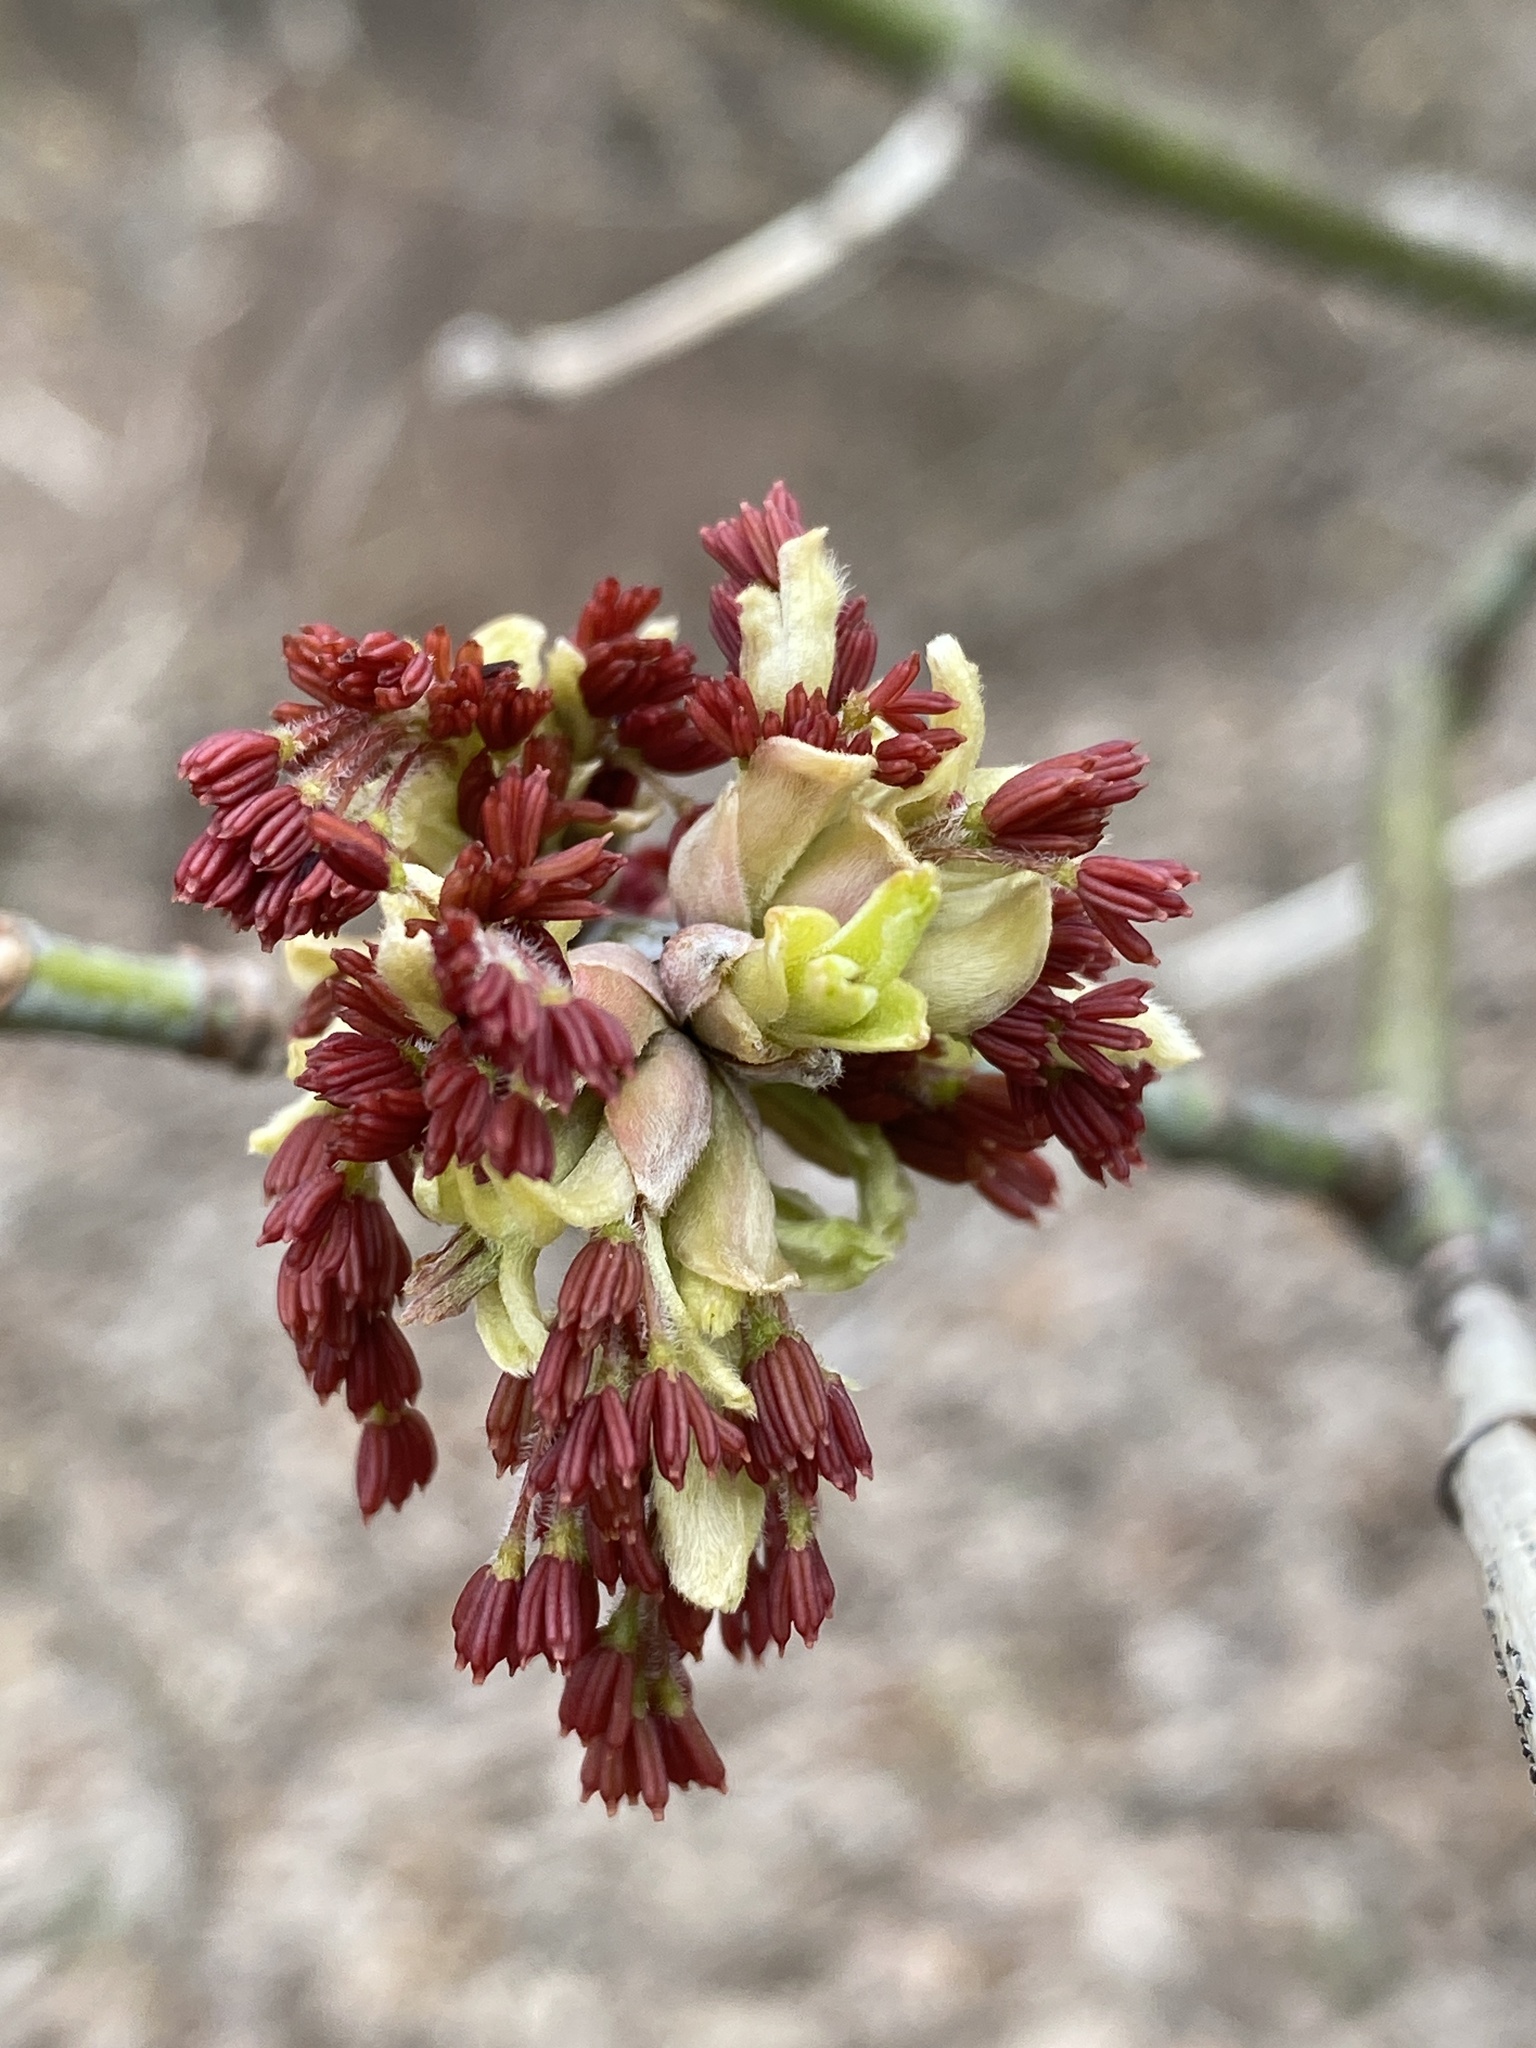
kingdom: Plantae
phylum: Tracheophyta
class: Magnoliopsida
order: Sapindales
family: Sapindaceae
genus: Acer
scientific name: Acer negundo
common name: Ashleaf maple
